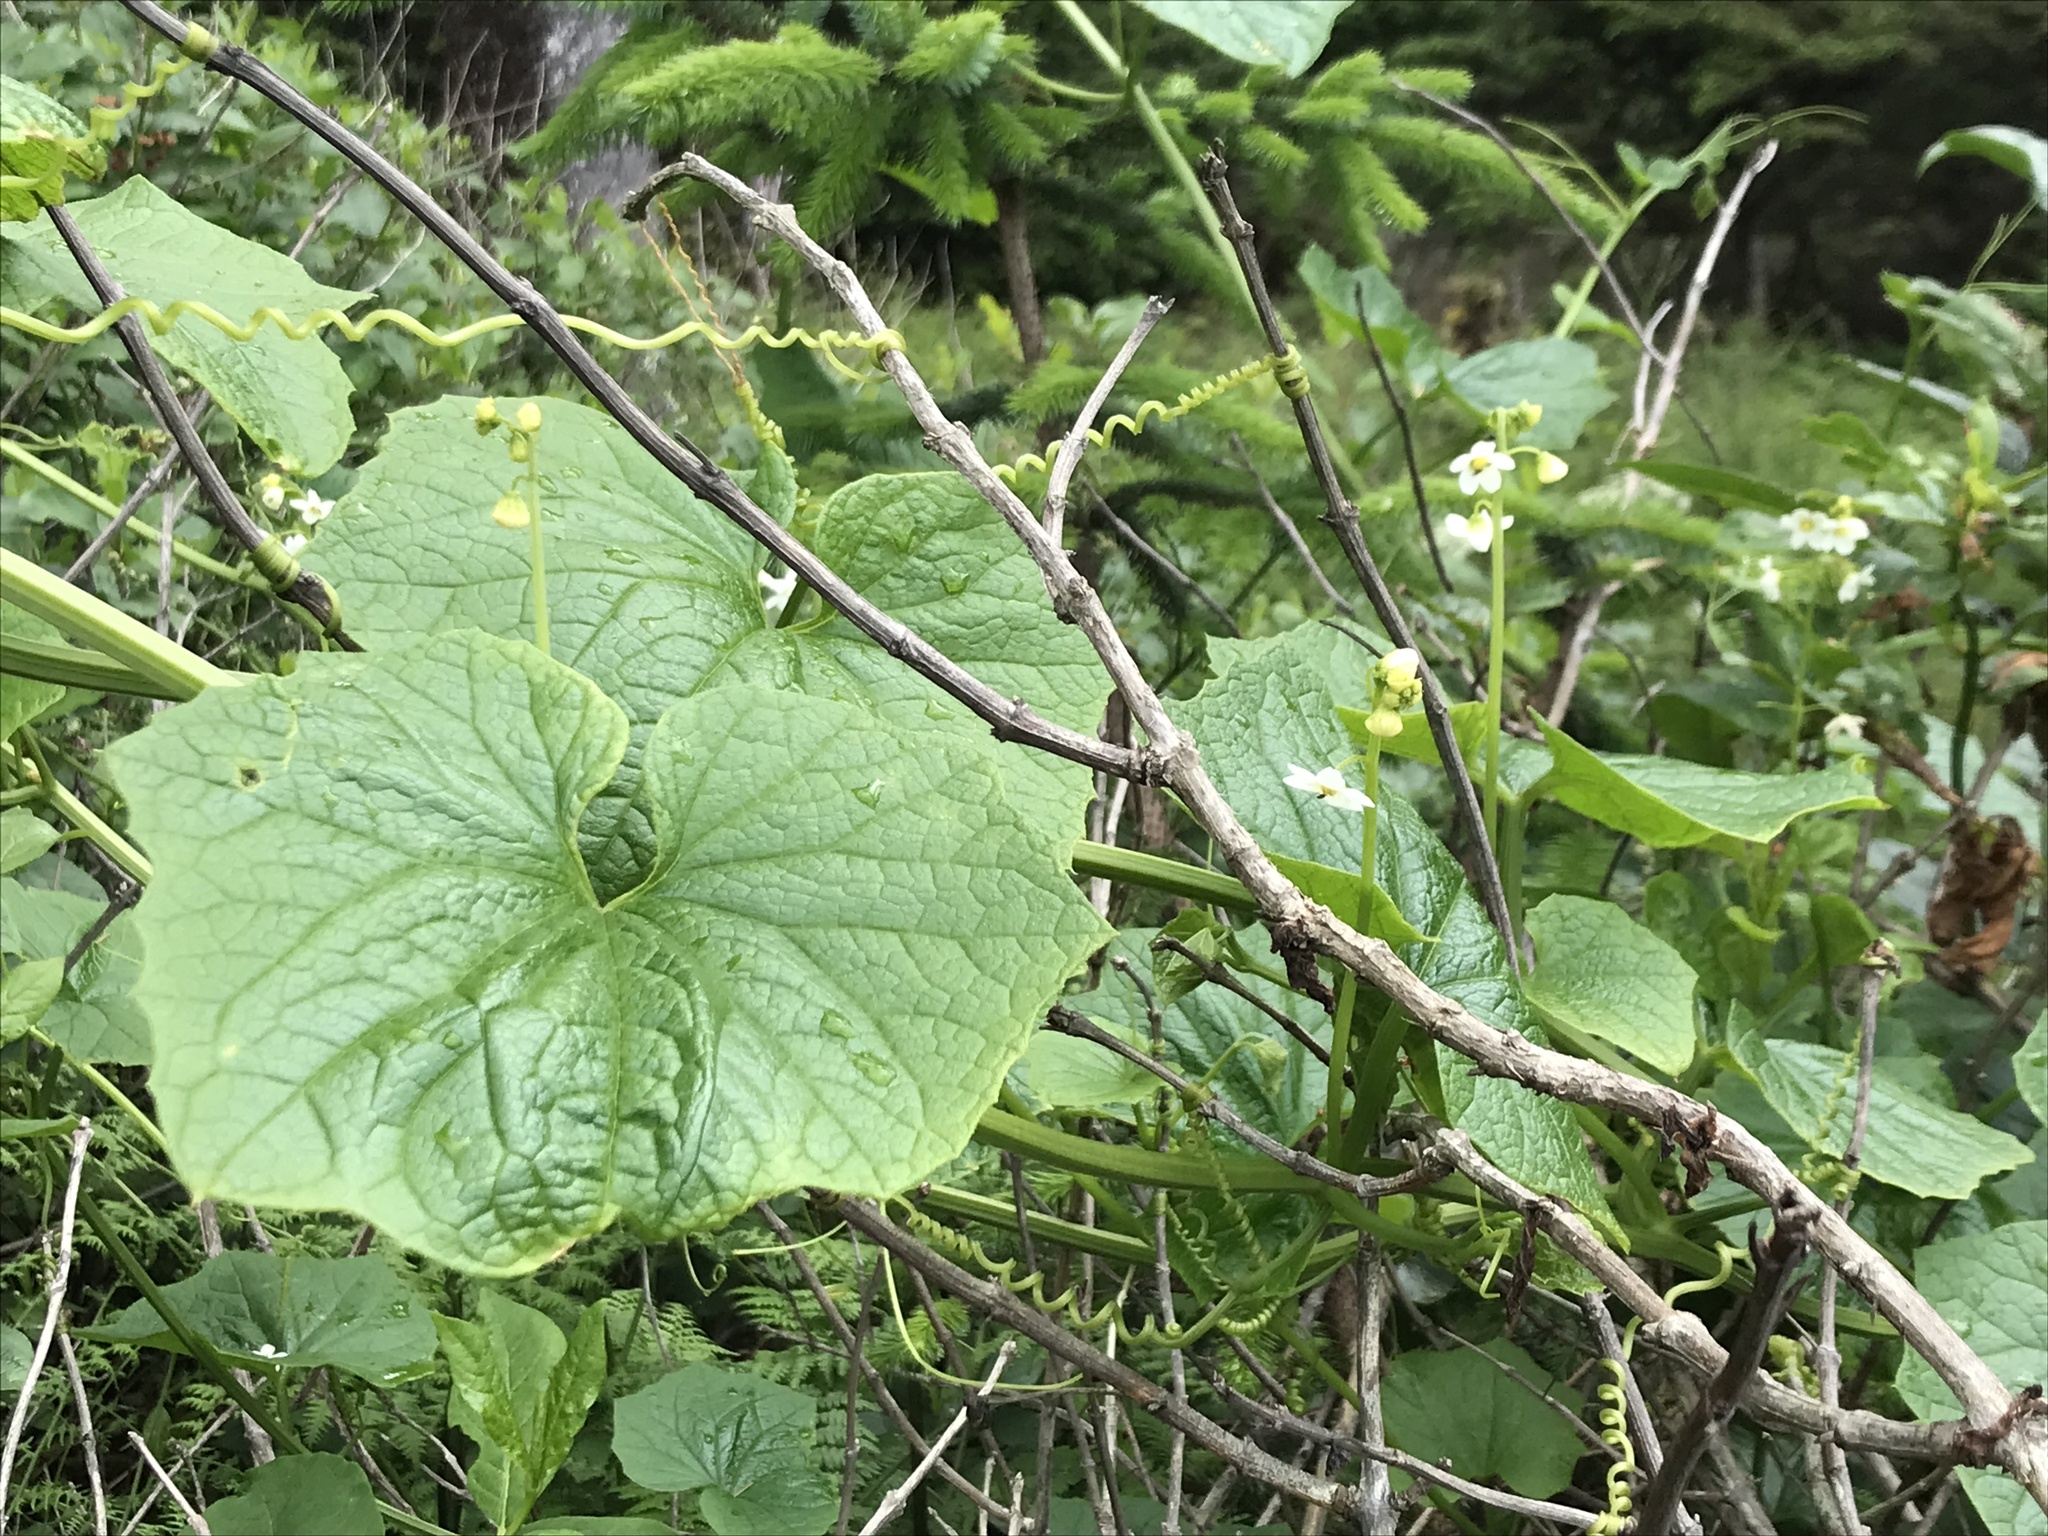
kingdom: Plantae
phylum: Tracheophyta
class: Magnoliopsida
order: Cucurbitales
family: Cucurbitaceae
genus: Marah
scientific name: Marah oregana
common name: Coastal manroot
